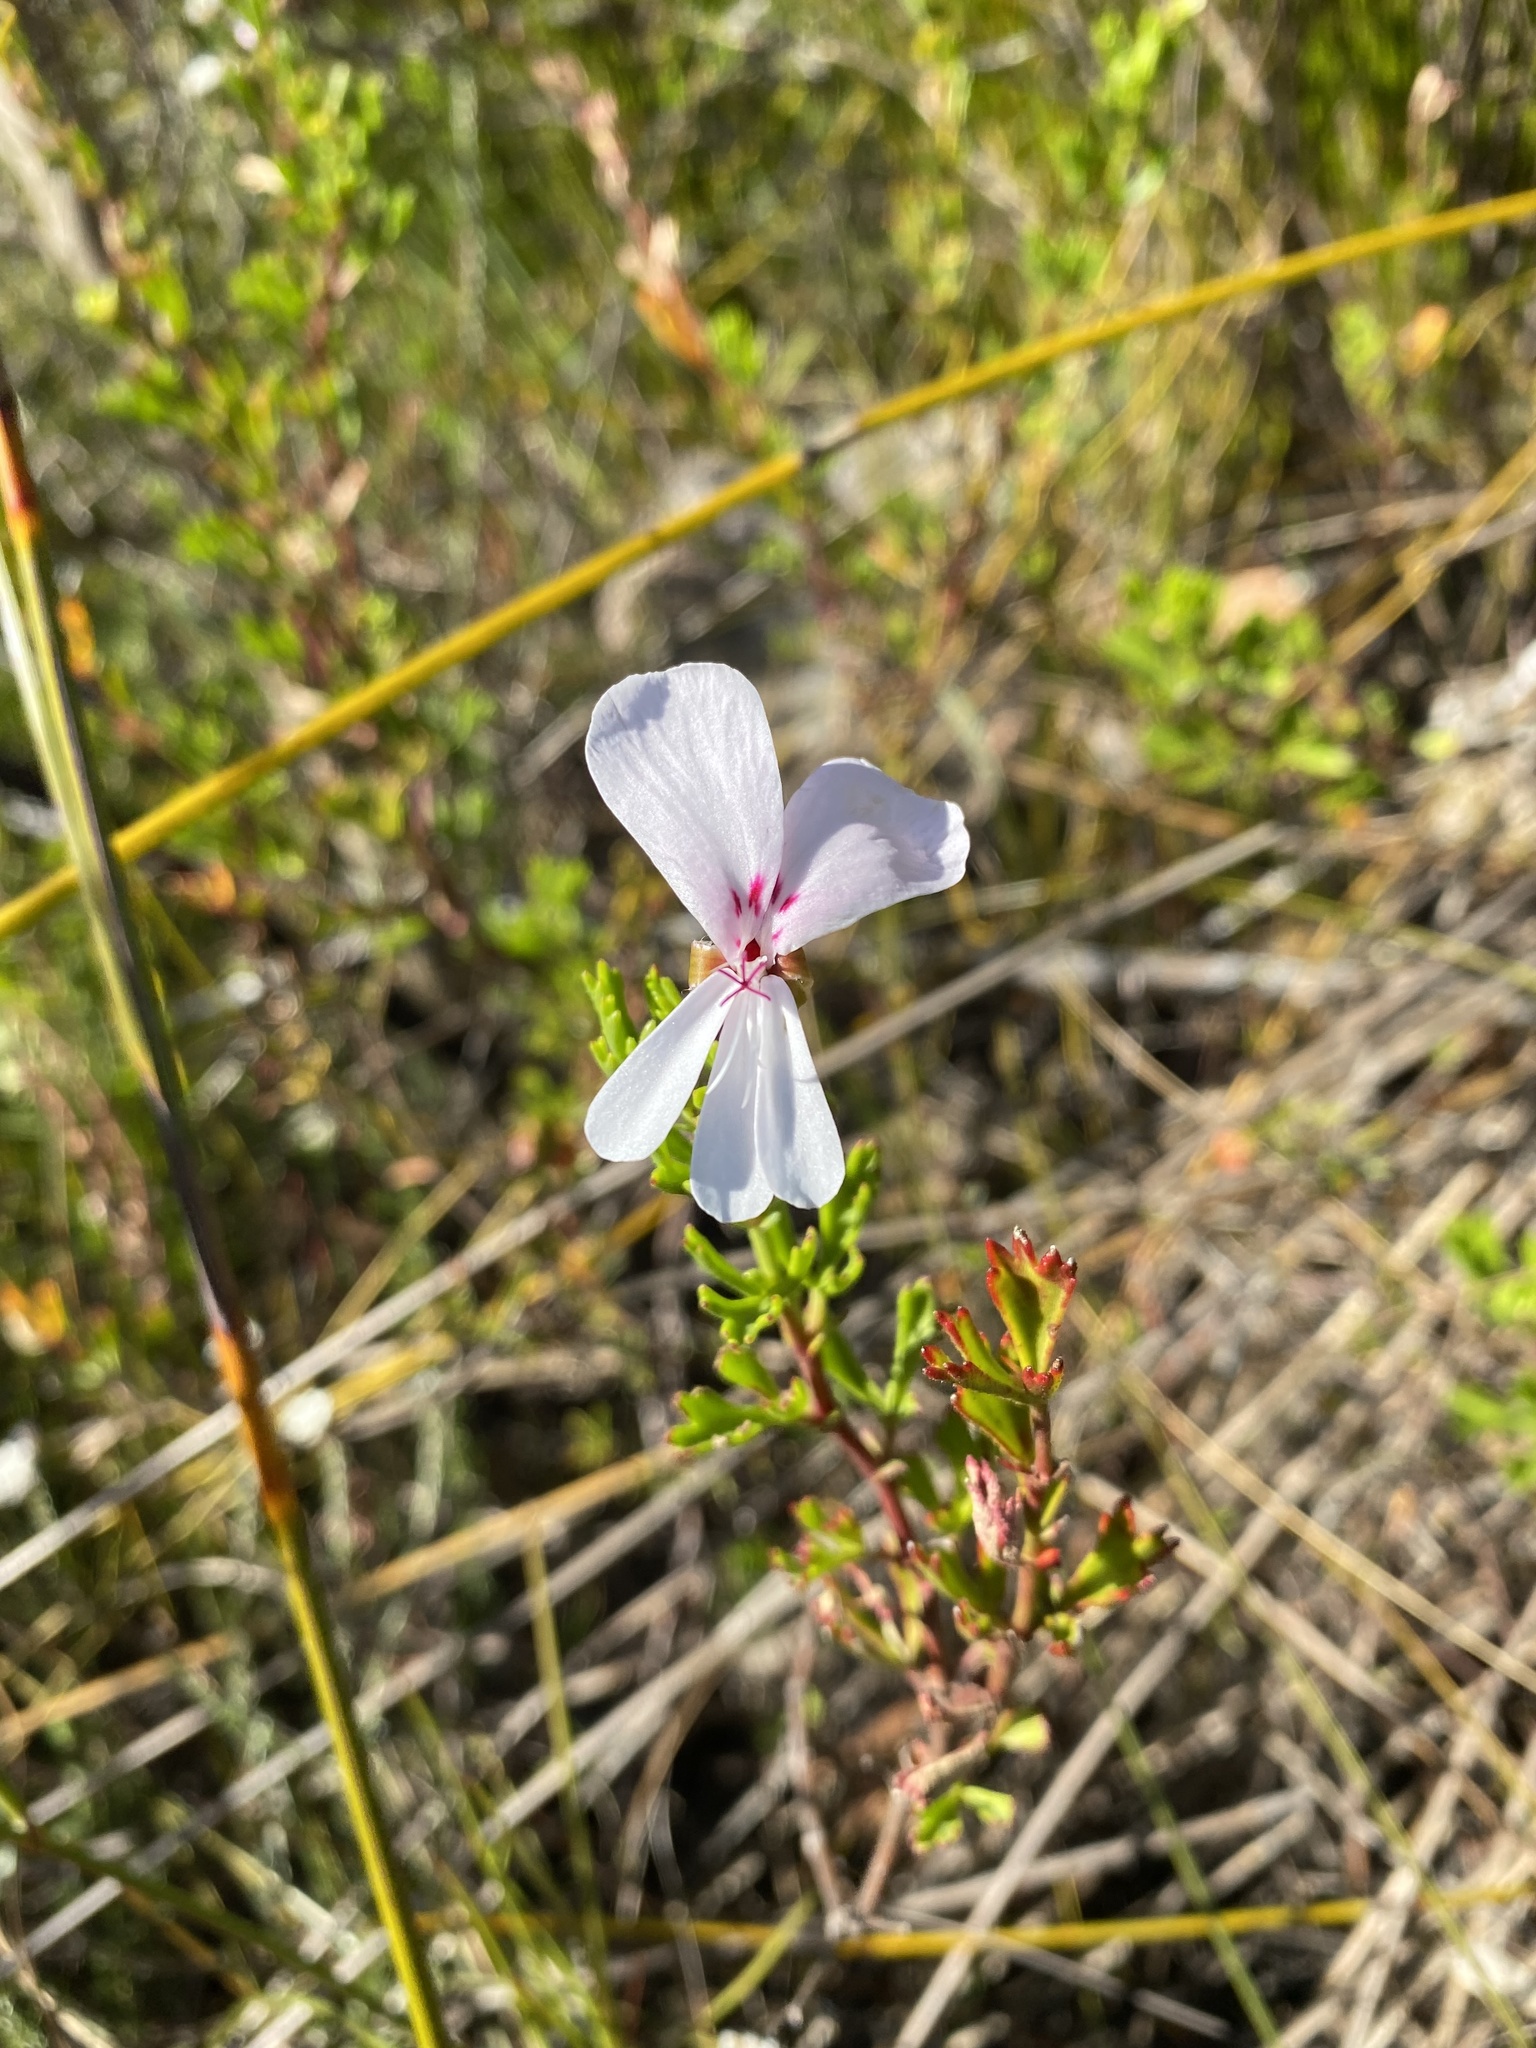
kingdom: Plantae
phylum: Tracheophyta
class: Magnoliopsida
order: Geraniales
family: Geraniaceae
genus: Pelargonium
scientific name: Pelargonium ternatum
